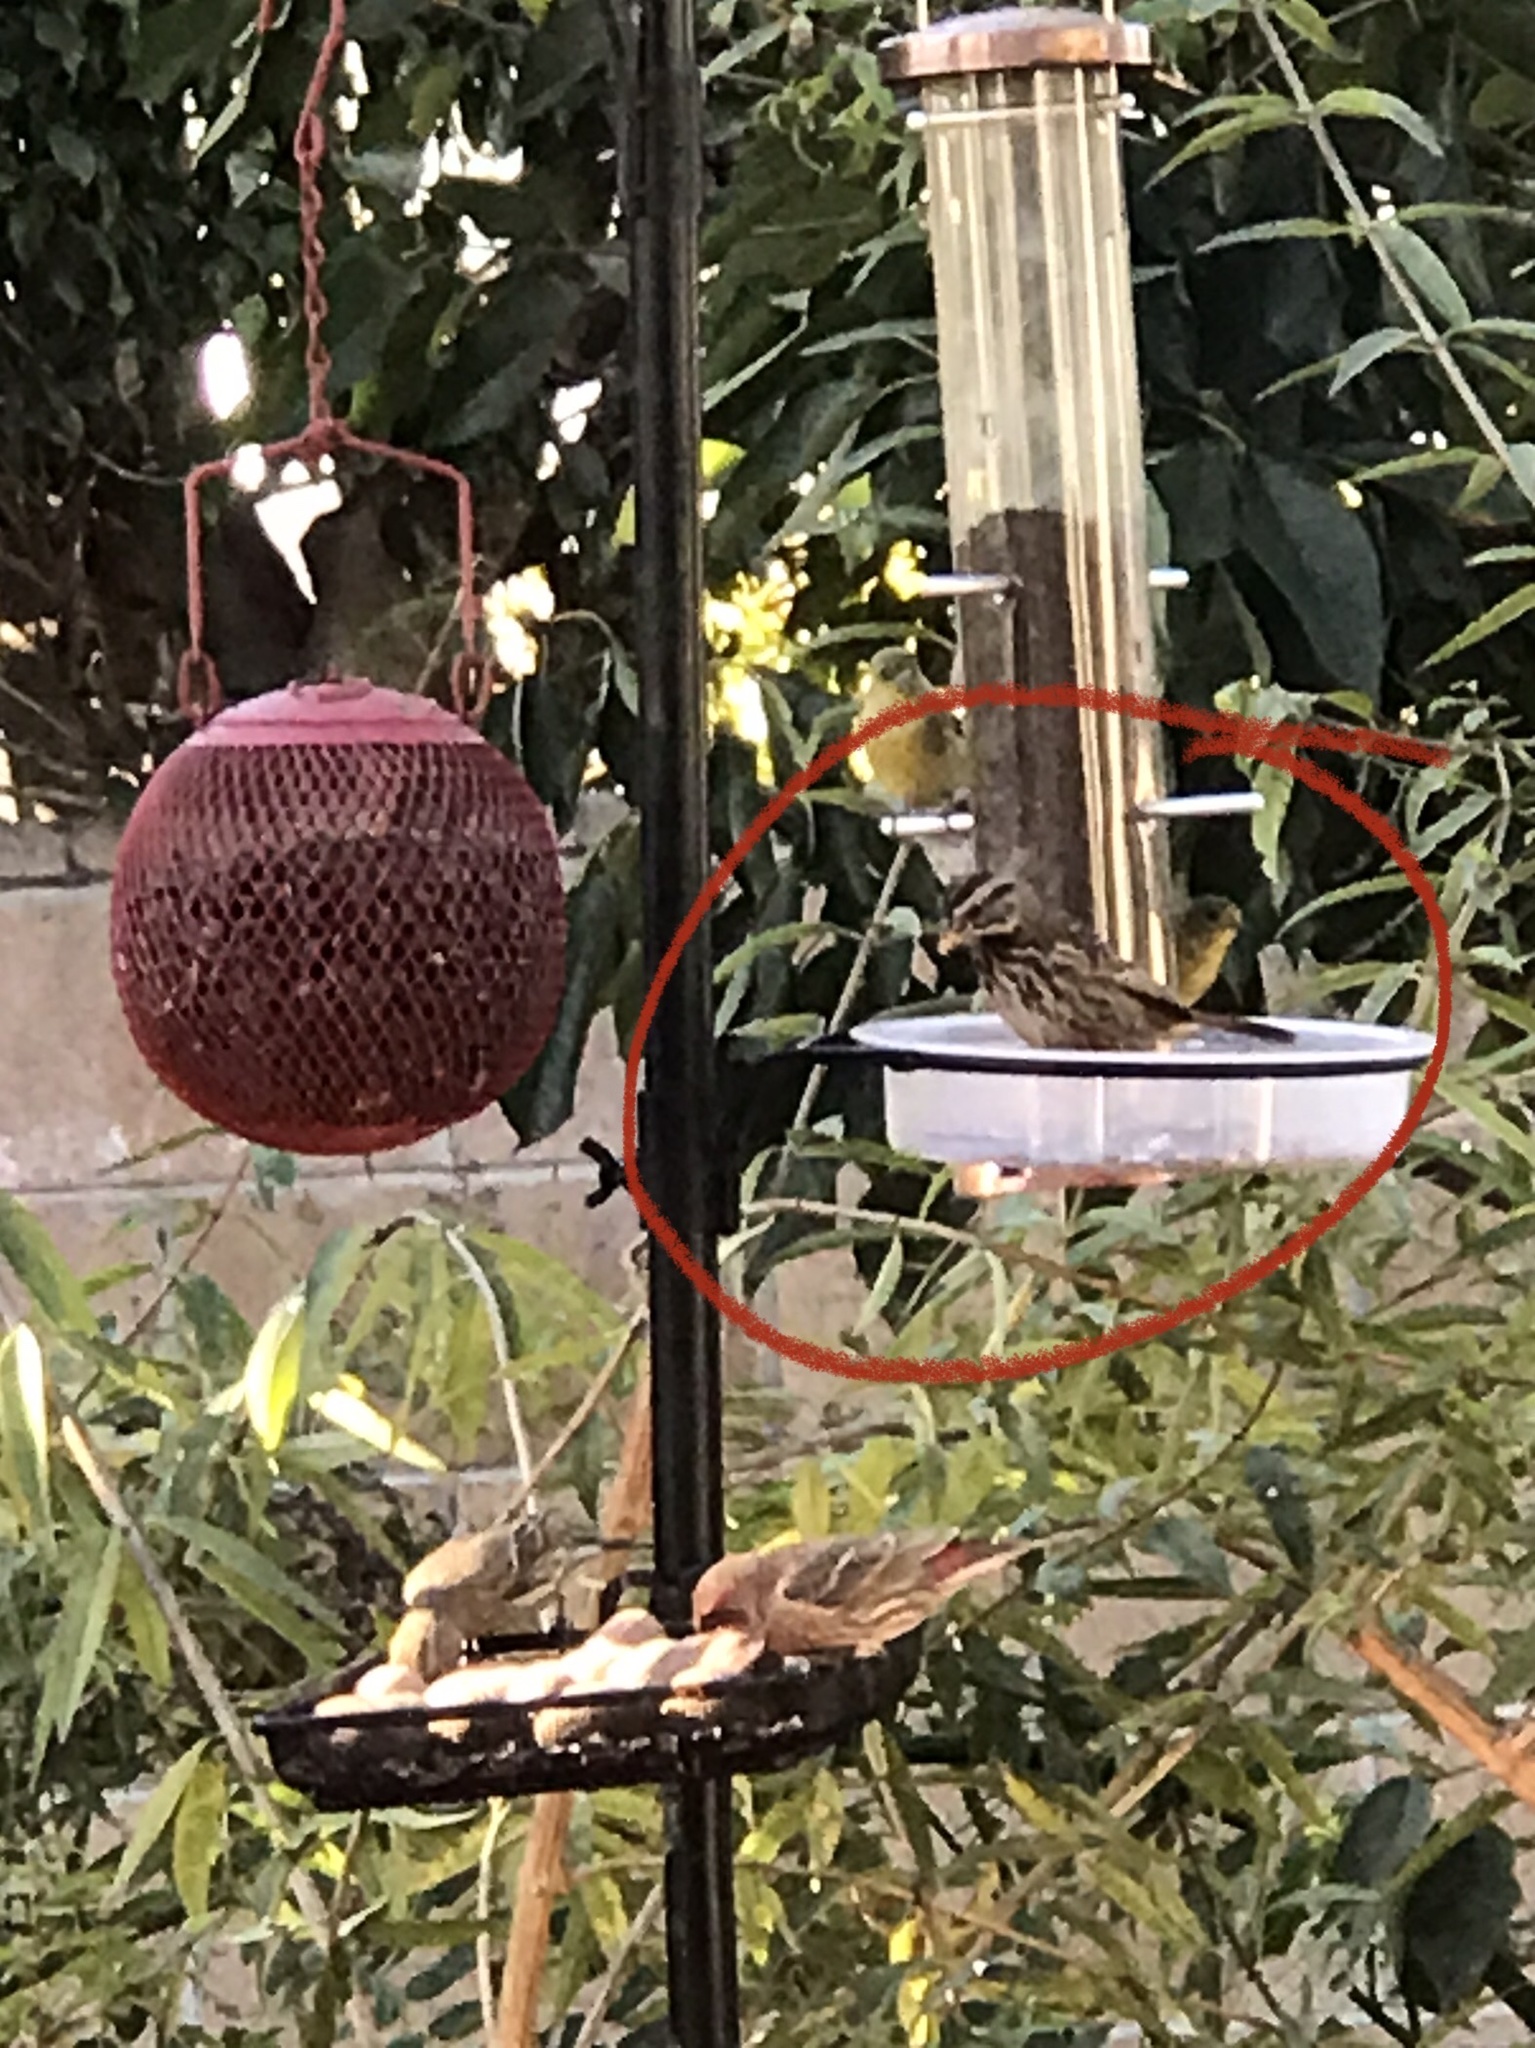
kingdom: Animalia
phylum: Chordata
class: Aves
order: Passeriformes
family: Passerellidae
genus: Melospiza
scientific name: Melospiza melodia
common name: Song sparrow
